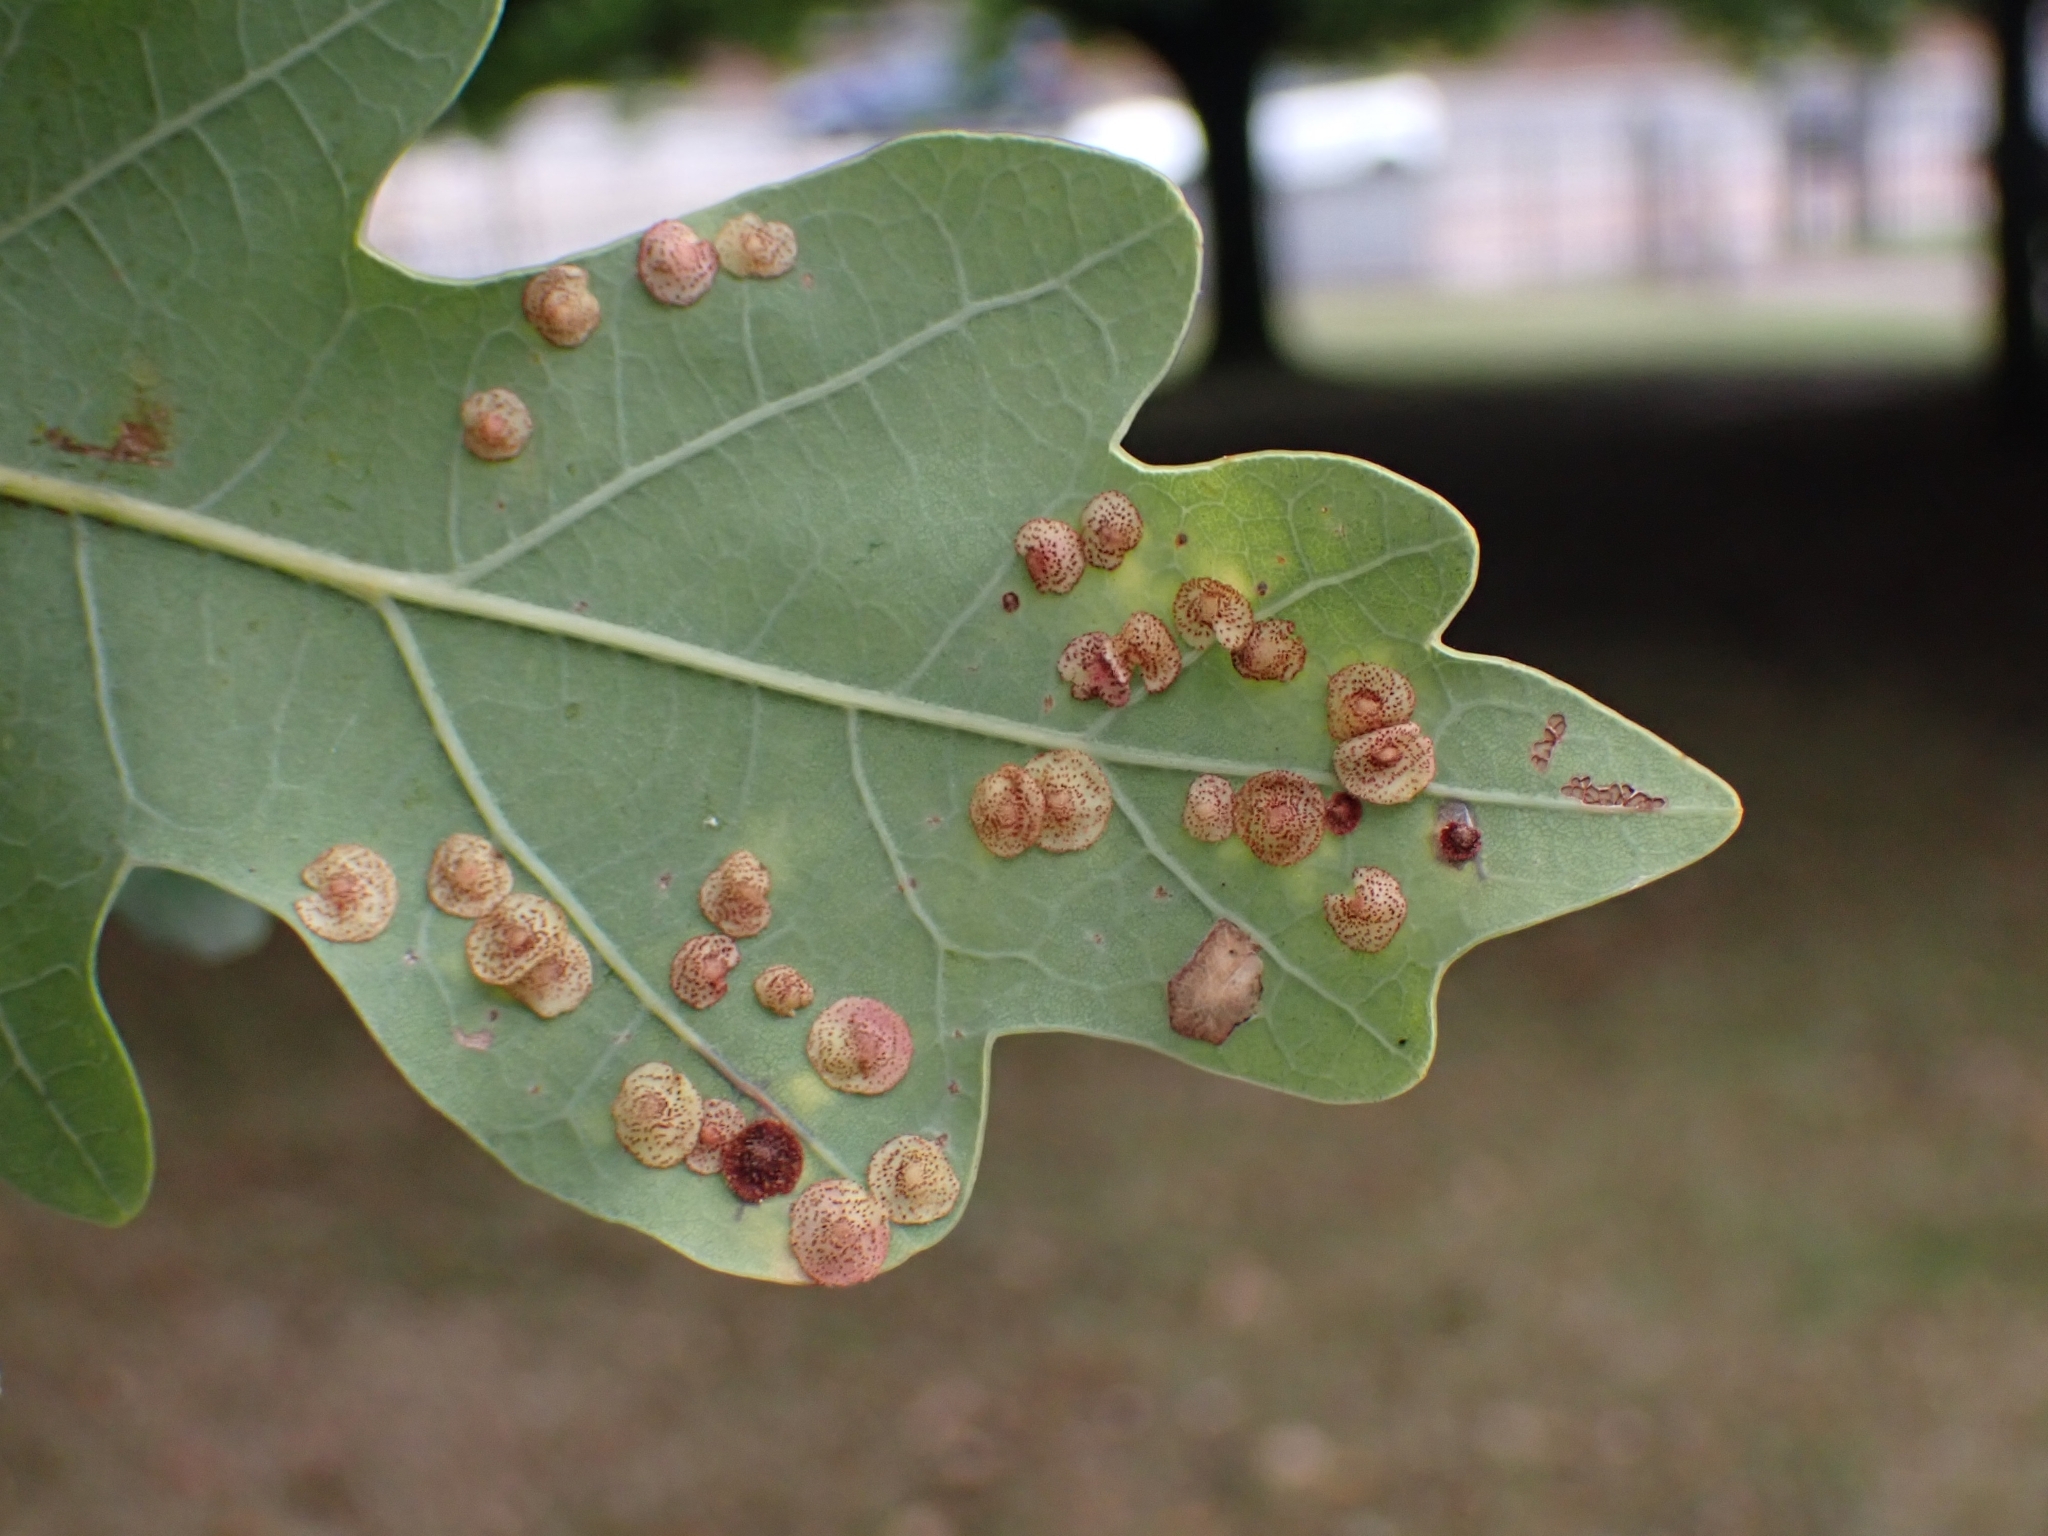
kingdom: Animalia
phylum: Arthropoda
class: Insecta
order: Hymenoptera
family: Cynipidae
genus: Neuroterus
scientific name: Neuroterus quercusbaccarum
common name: Common spangle gall
